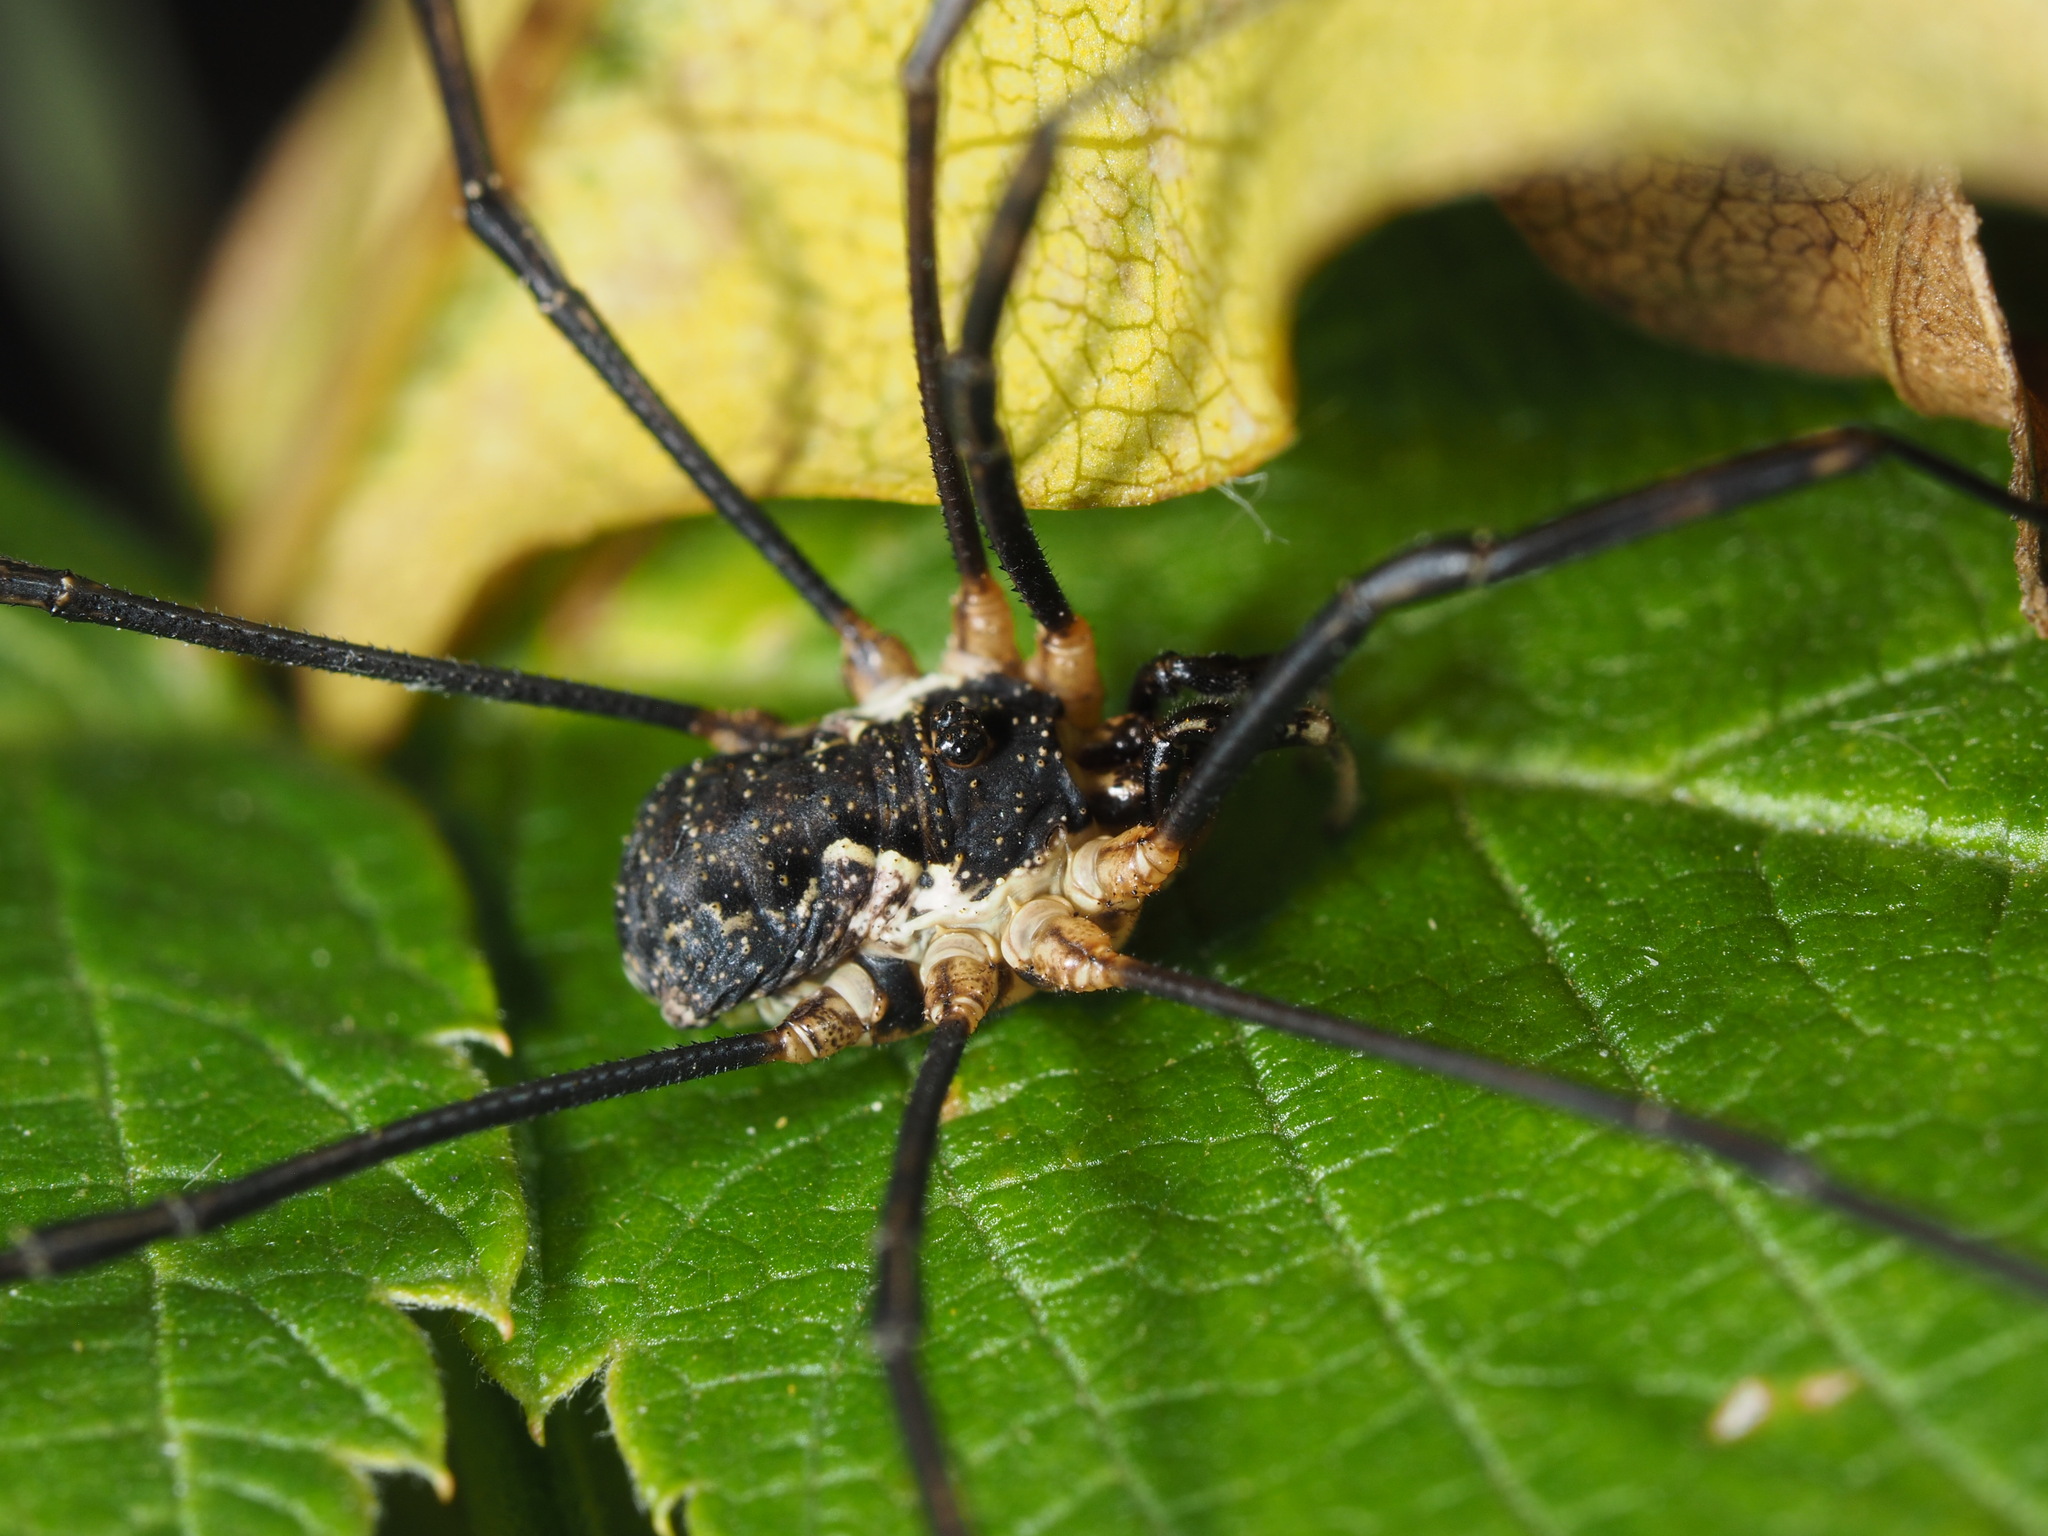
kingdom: Animalia
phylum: Arthropoda
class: Arachnida
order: Opiliones
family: Phalangiidae
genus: Mitopus
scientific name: Mitopus morio
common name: Saddleback harvestman
